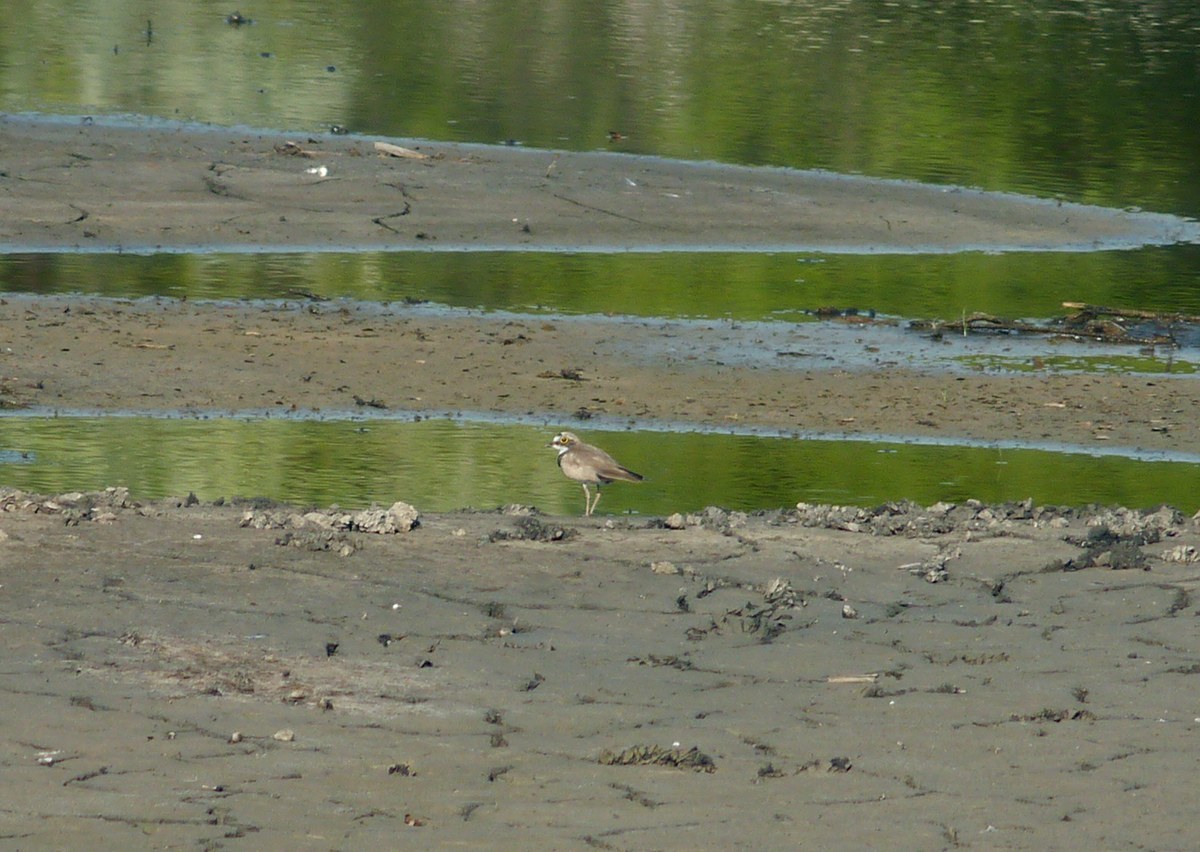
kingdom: Animalia
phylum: Chordata
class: Aves
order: Charadriiformes
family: Charadriidae
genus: Charadrius
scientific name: Charadrius dubius
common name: Little ringed plover
